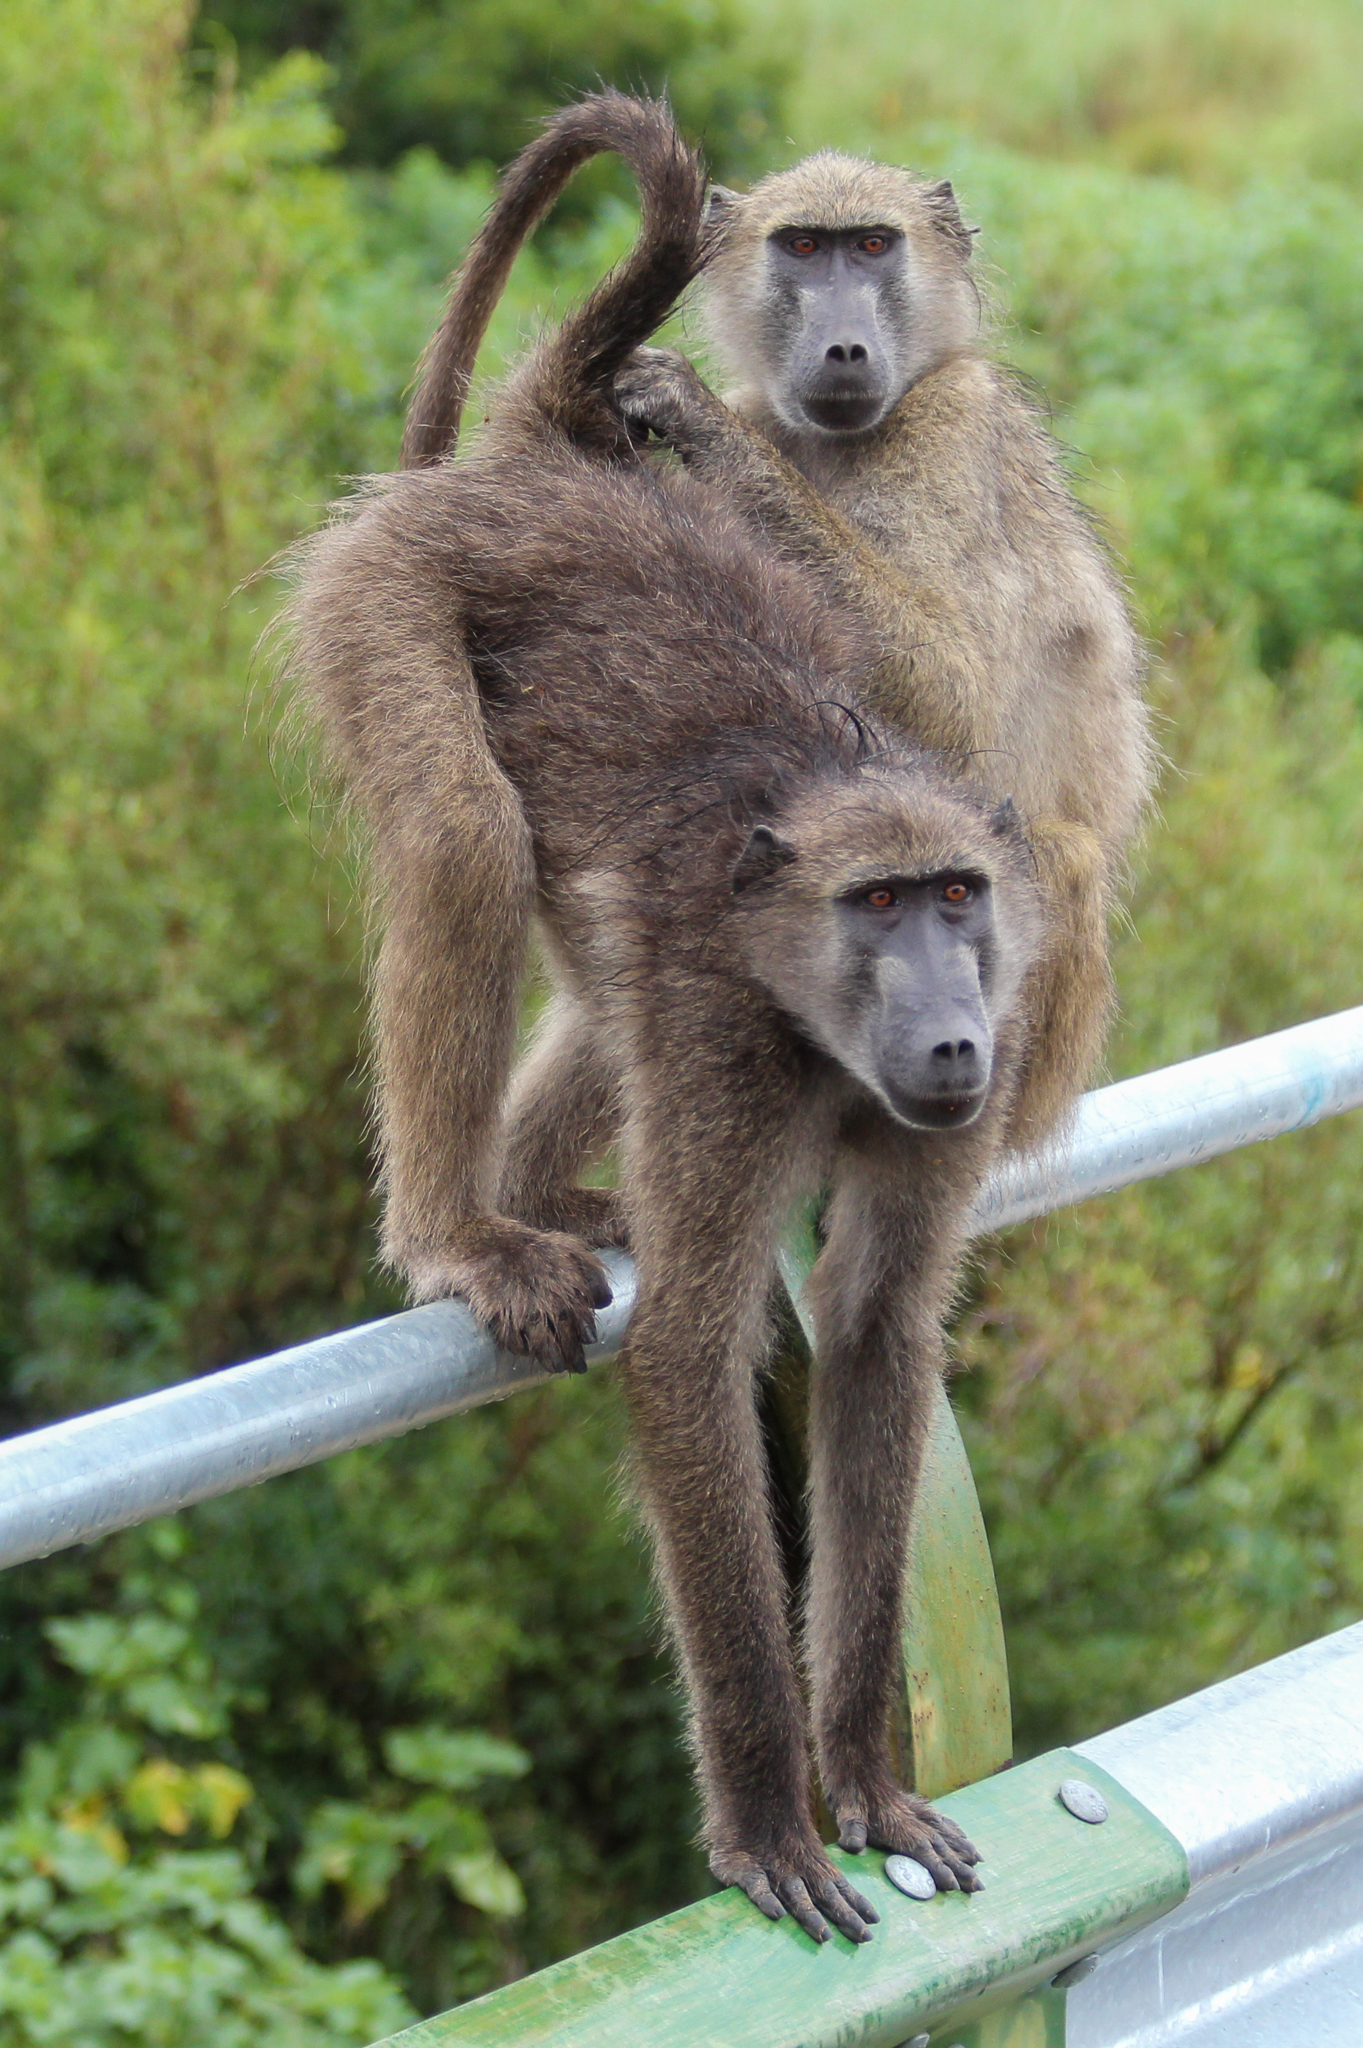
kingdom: Animalia
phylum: Chordata
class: Mammalia
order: Primates
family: Cercopithecidae
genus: Papio
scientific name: Papio ursinus
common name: Chacma baboon
